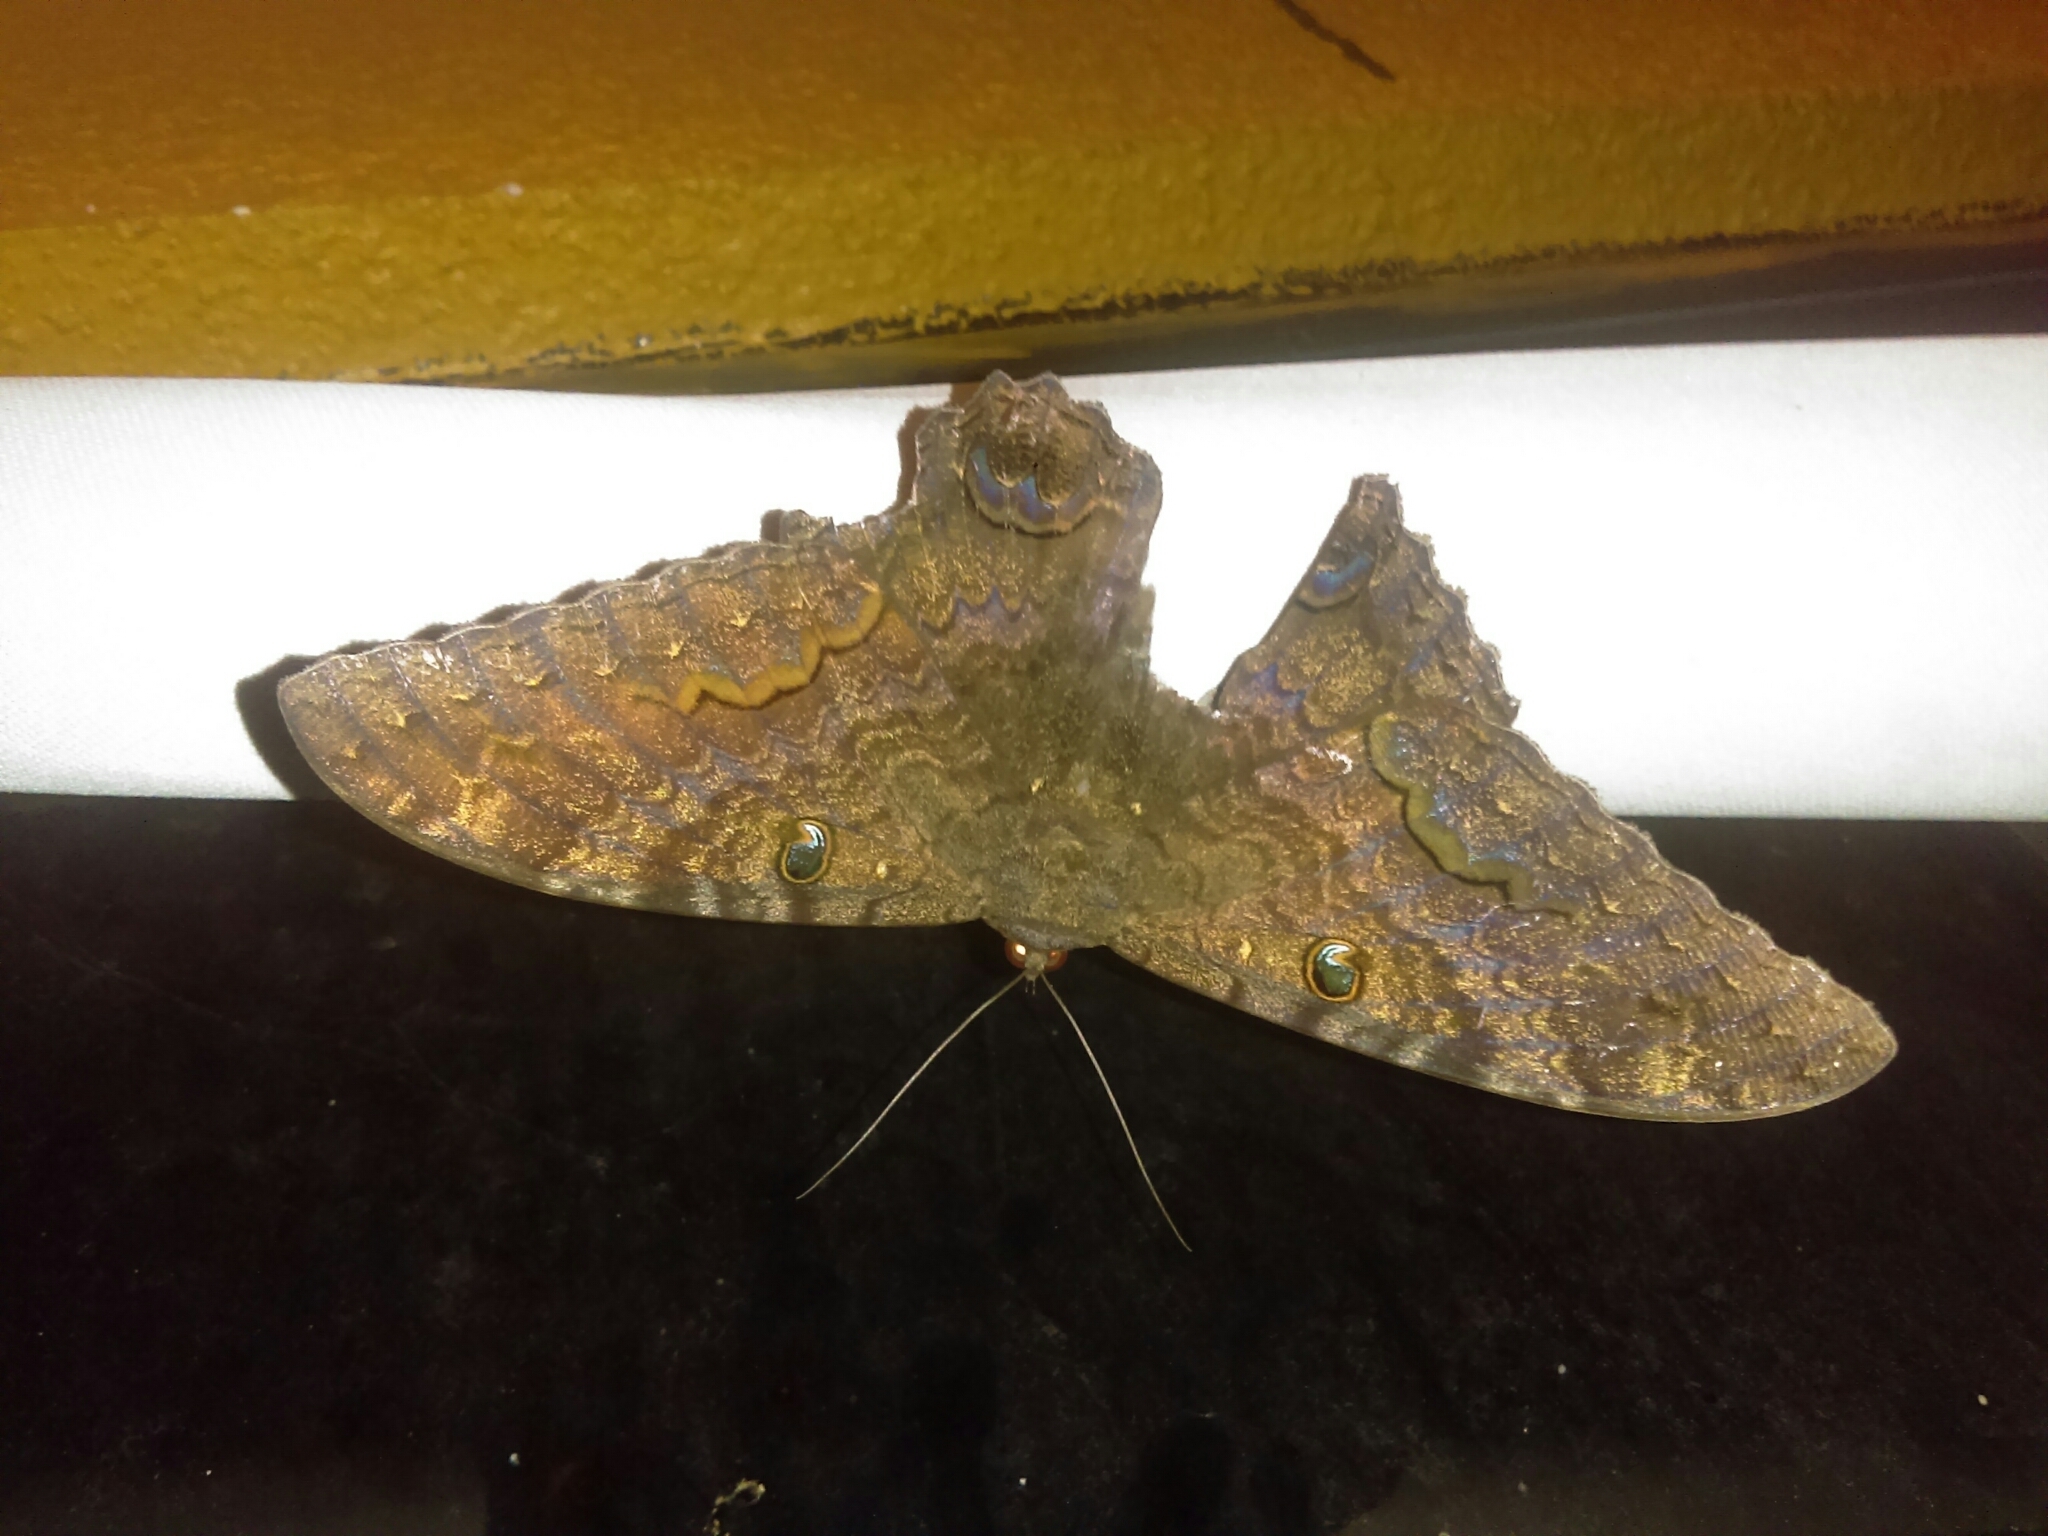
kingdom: Animalia
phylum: Arthropoda
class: Insecta
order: Lepidoptera
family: Erebidae
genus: Ascalapha
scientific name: Ascalapha odorata
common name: Black witch
